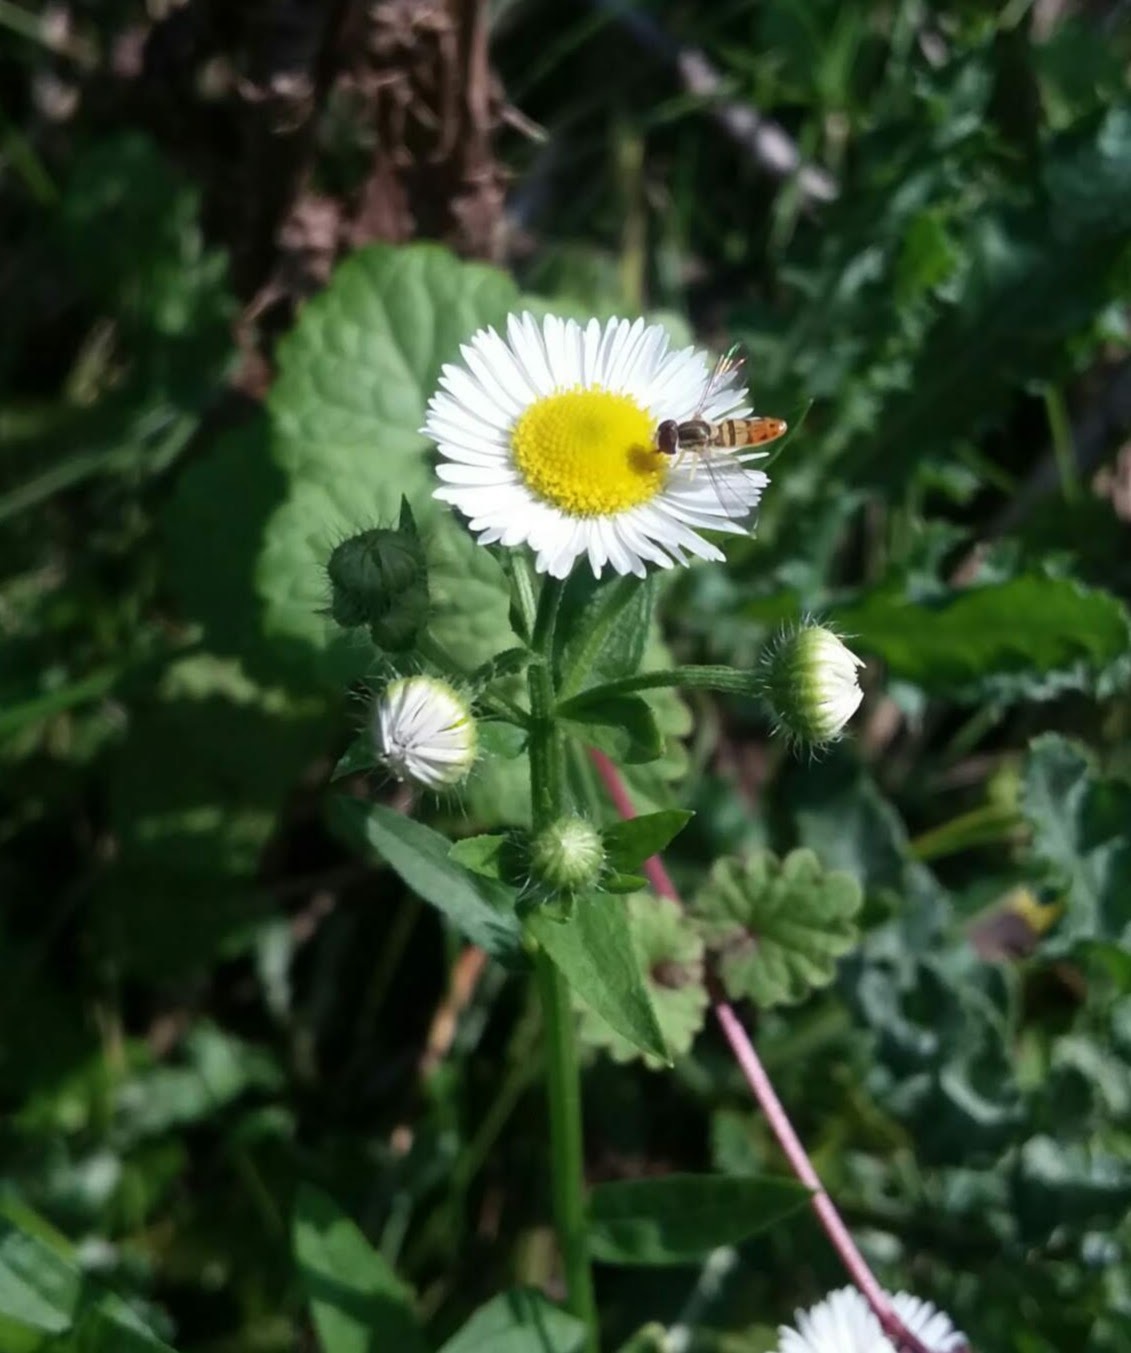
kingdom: Animalia
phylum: Arthropoda
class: Insecta
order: Diptera
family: Syrphidae
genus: Toxomerus
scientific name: Toxomerus marginatus
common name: Syrphid fly
